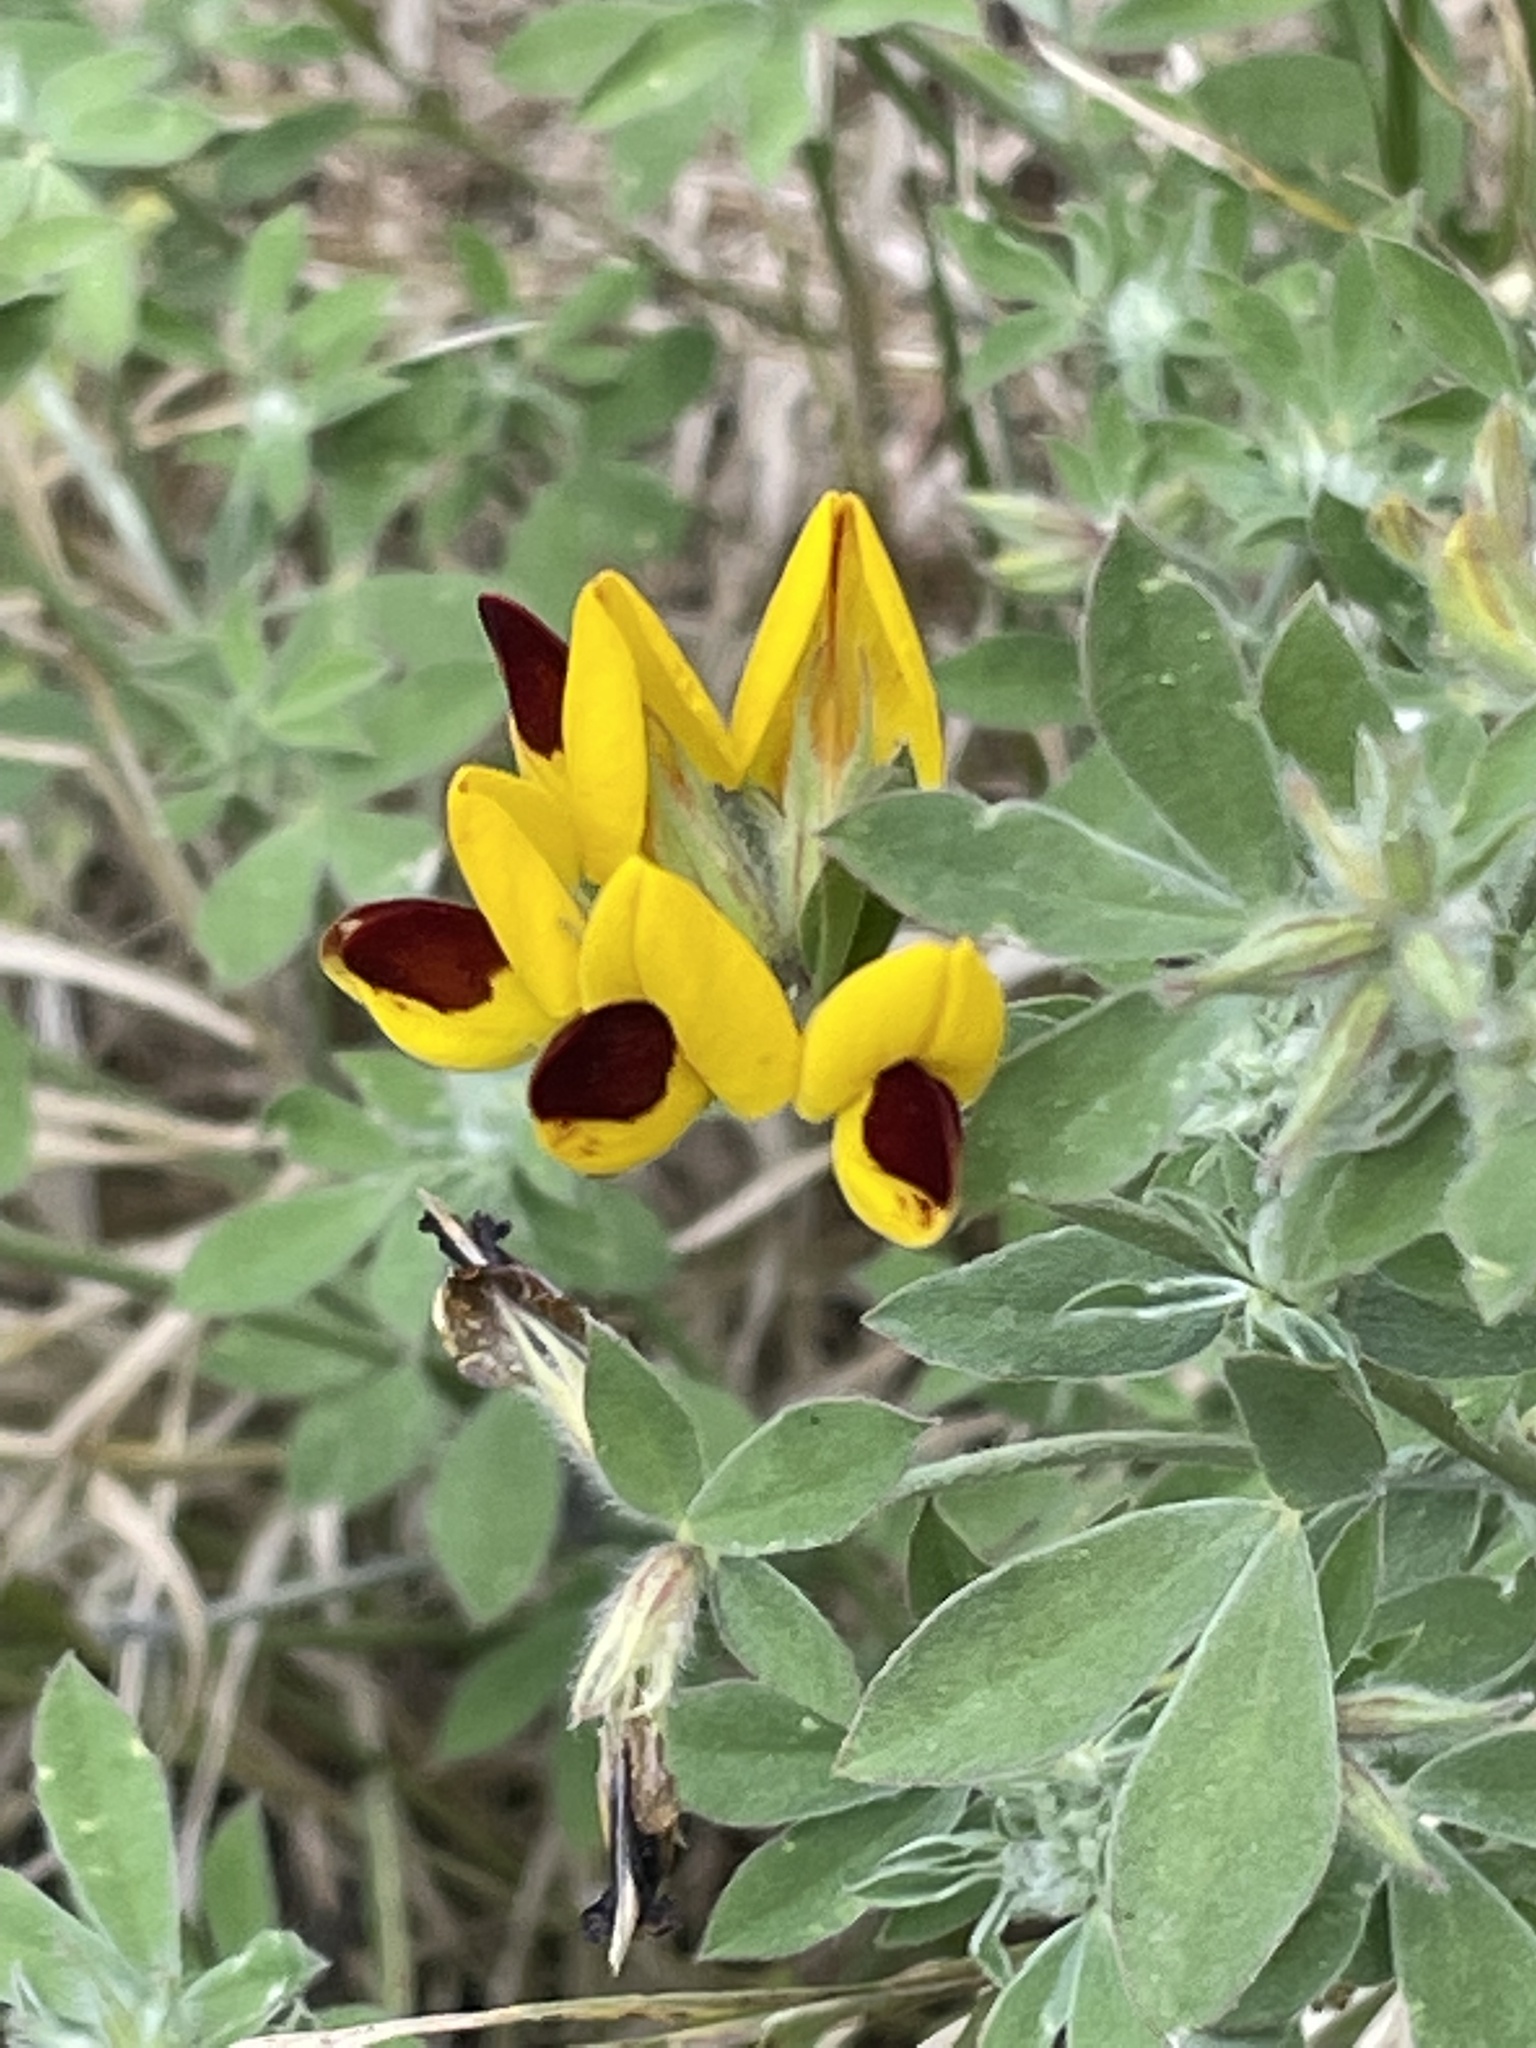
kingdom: Plantae
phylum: Tracheophyta
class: Magnoliopsida
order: Fabales
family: Fabaceae
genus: Lotus
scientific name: Lotus oliveirae
